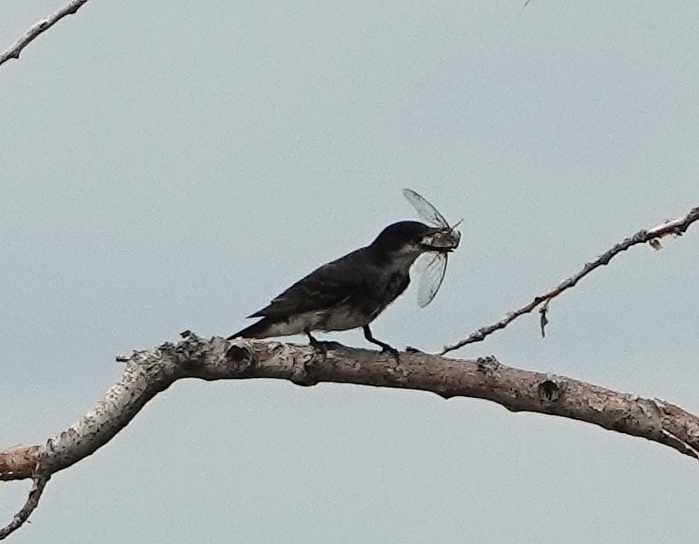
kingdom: Animalia
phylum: Chordata
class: Aves
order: Passeriformes
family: Tyrannidae
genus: Tyrannus
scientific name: Tyrannus tyrannus
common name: Eastern kingbird
